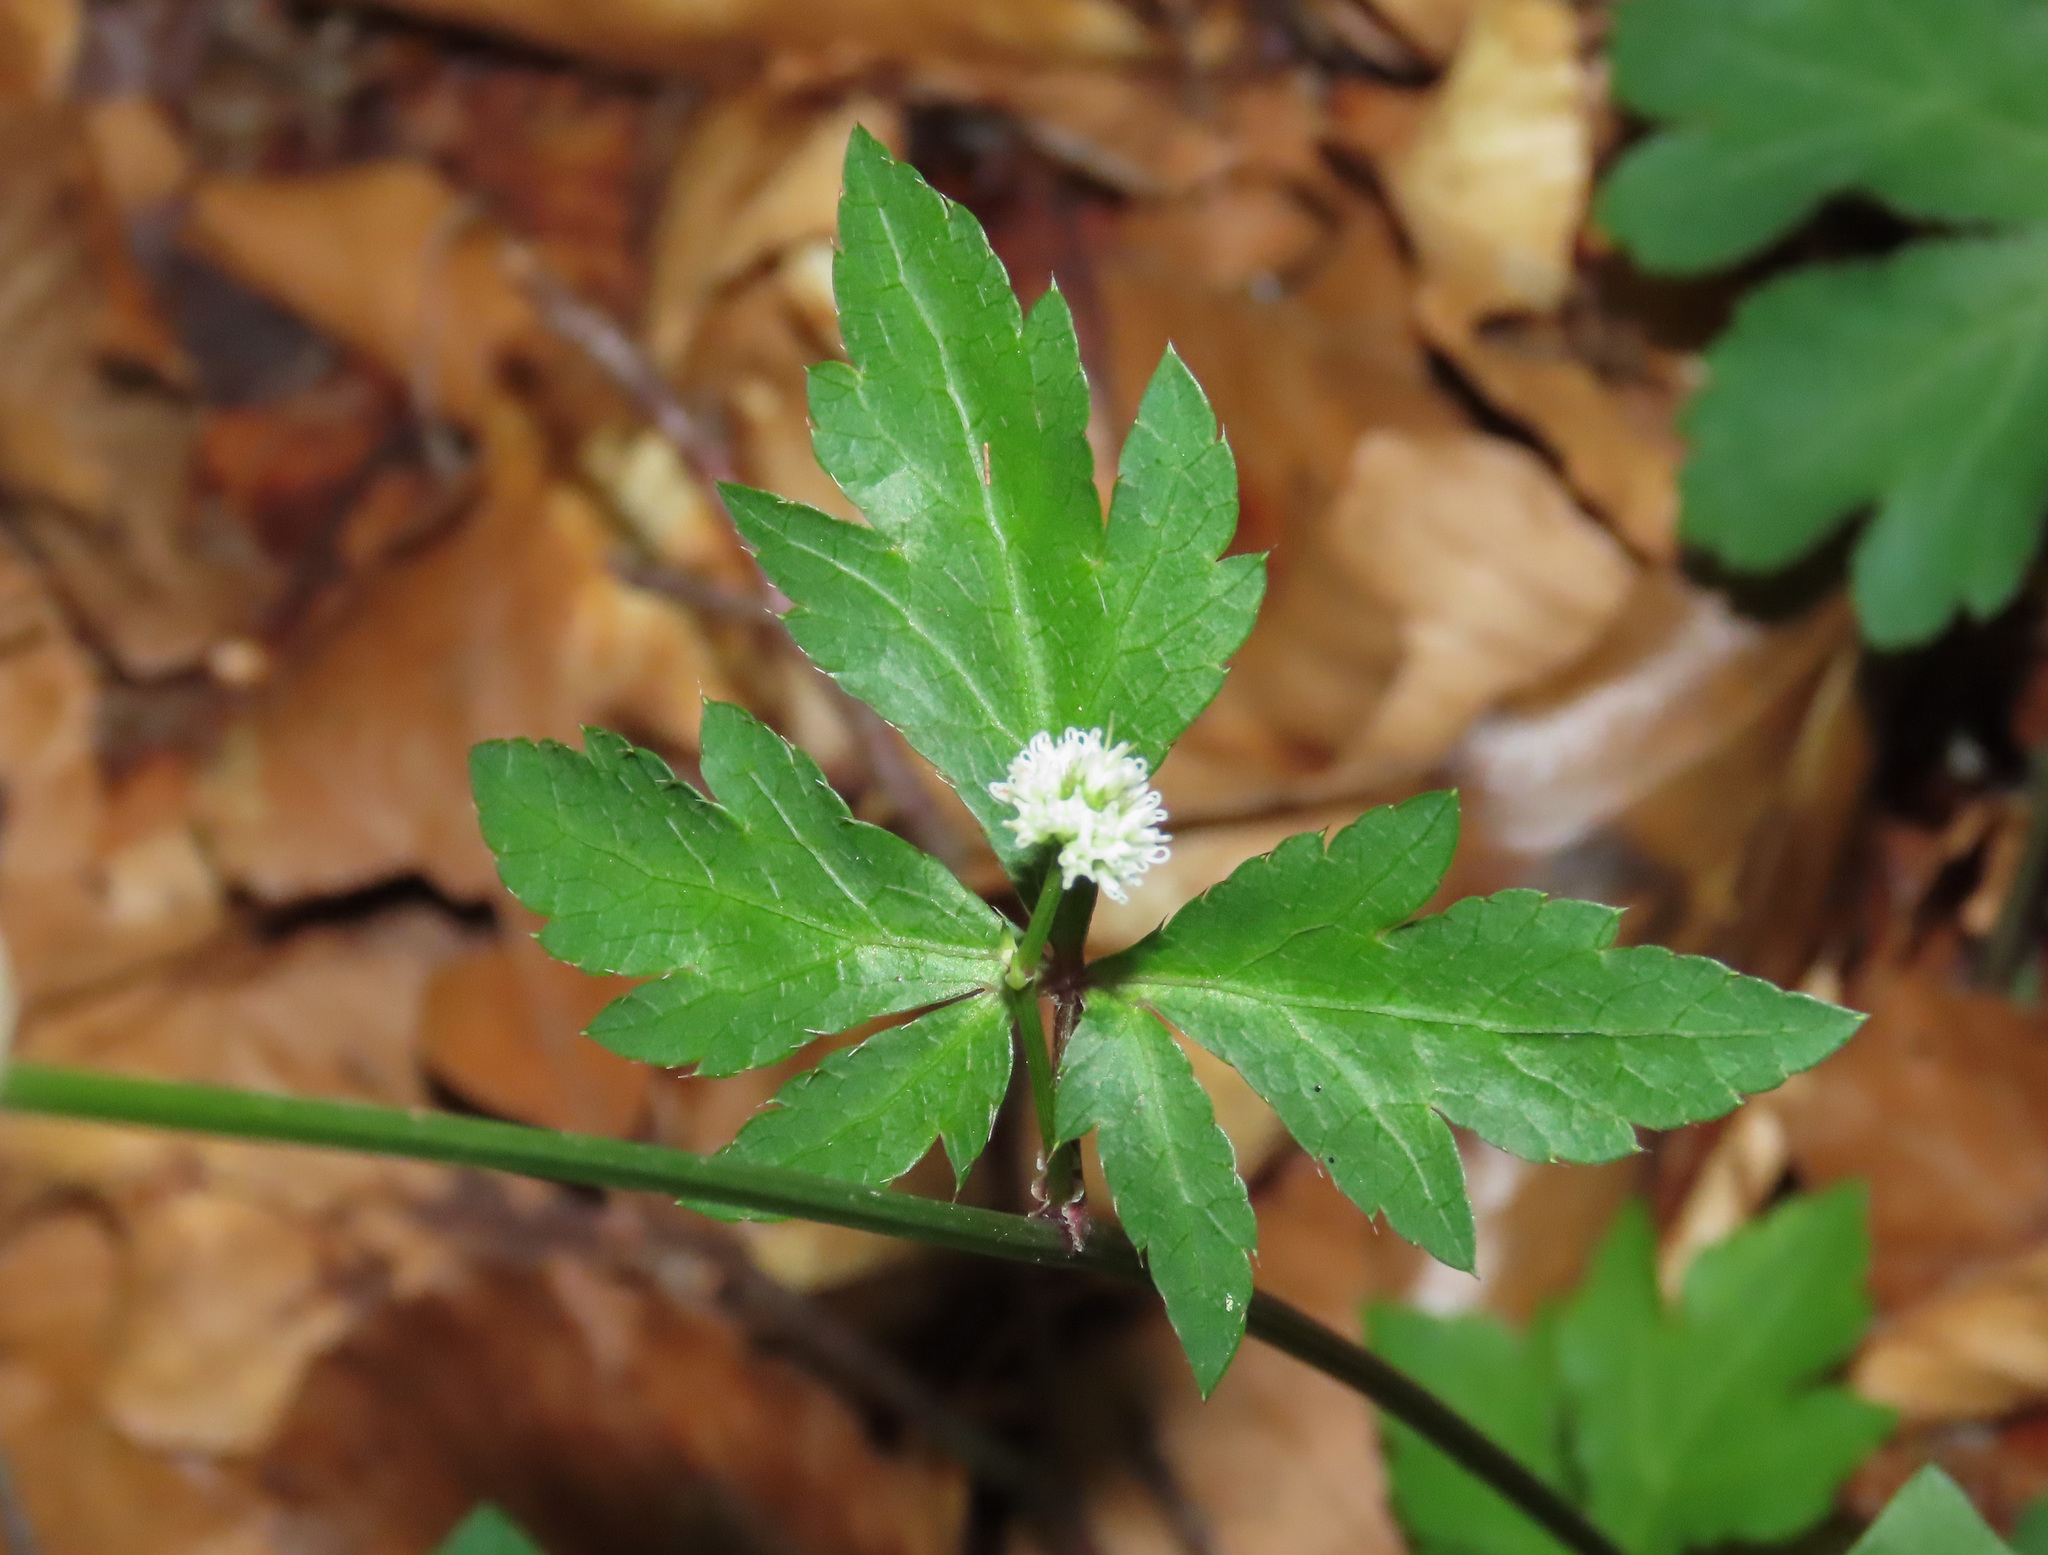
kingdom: Plantae
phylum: Tracheophyta
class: Magnoliopsida
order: Apiales
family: Apiaceae
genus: Sanicula
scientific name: Sanicula europaea
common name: Sanicle
